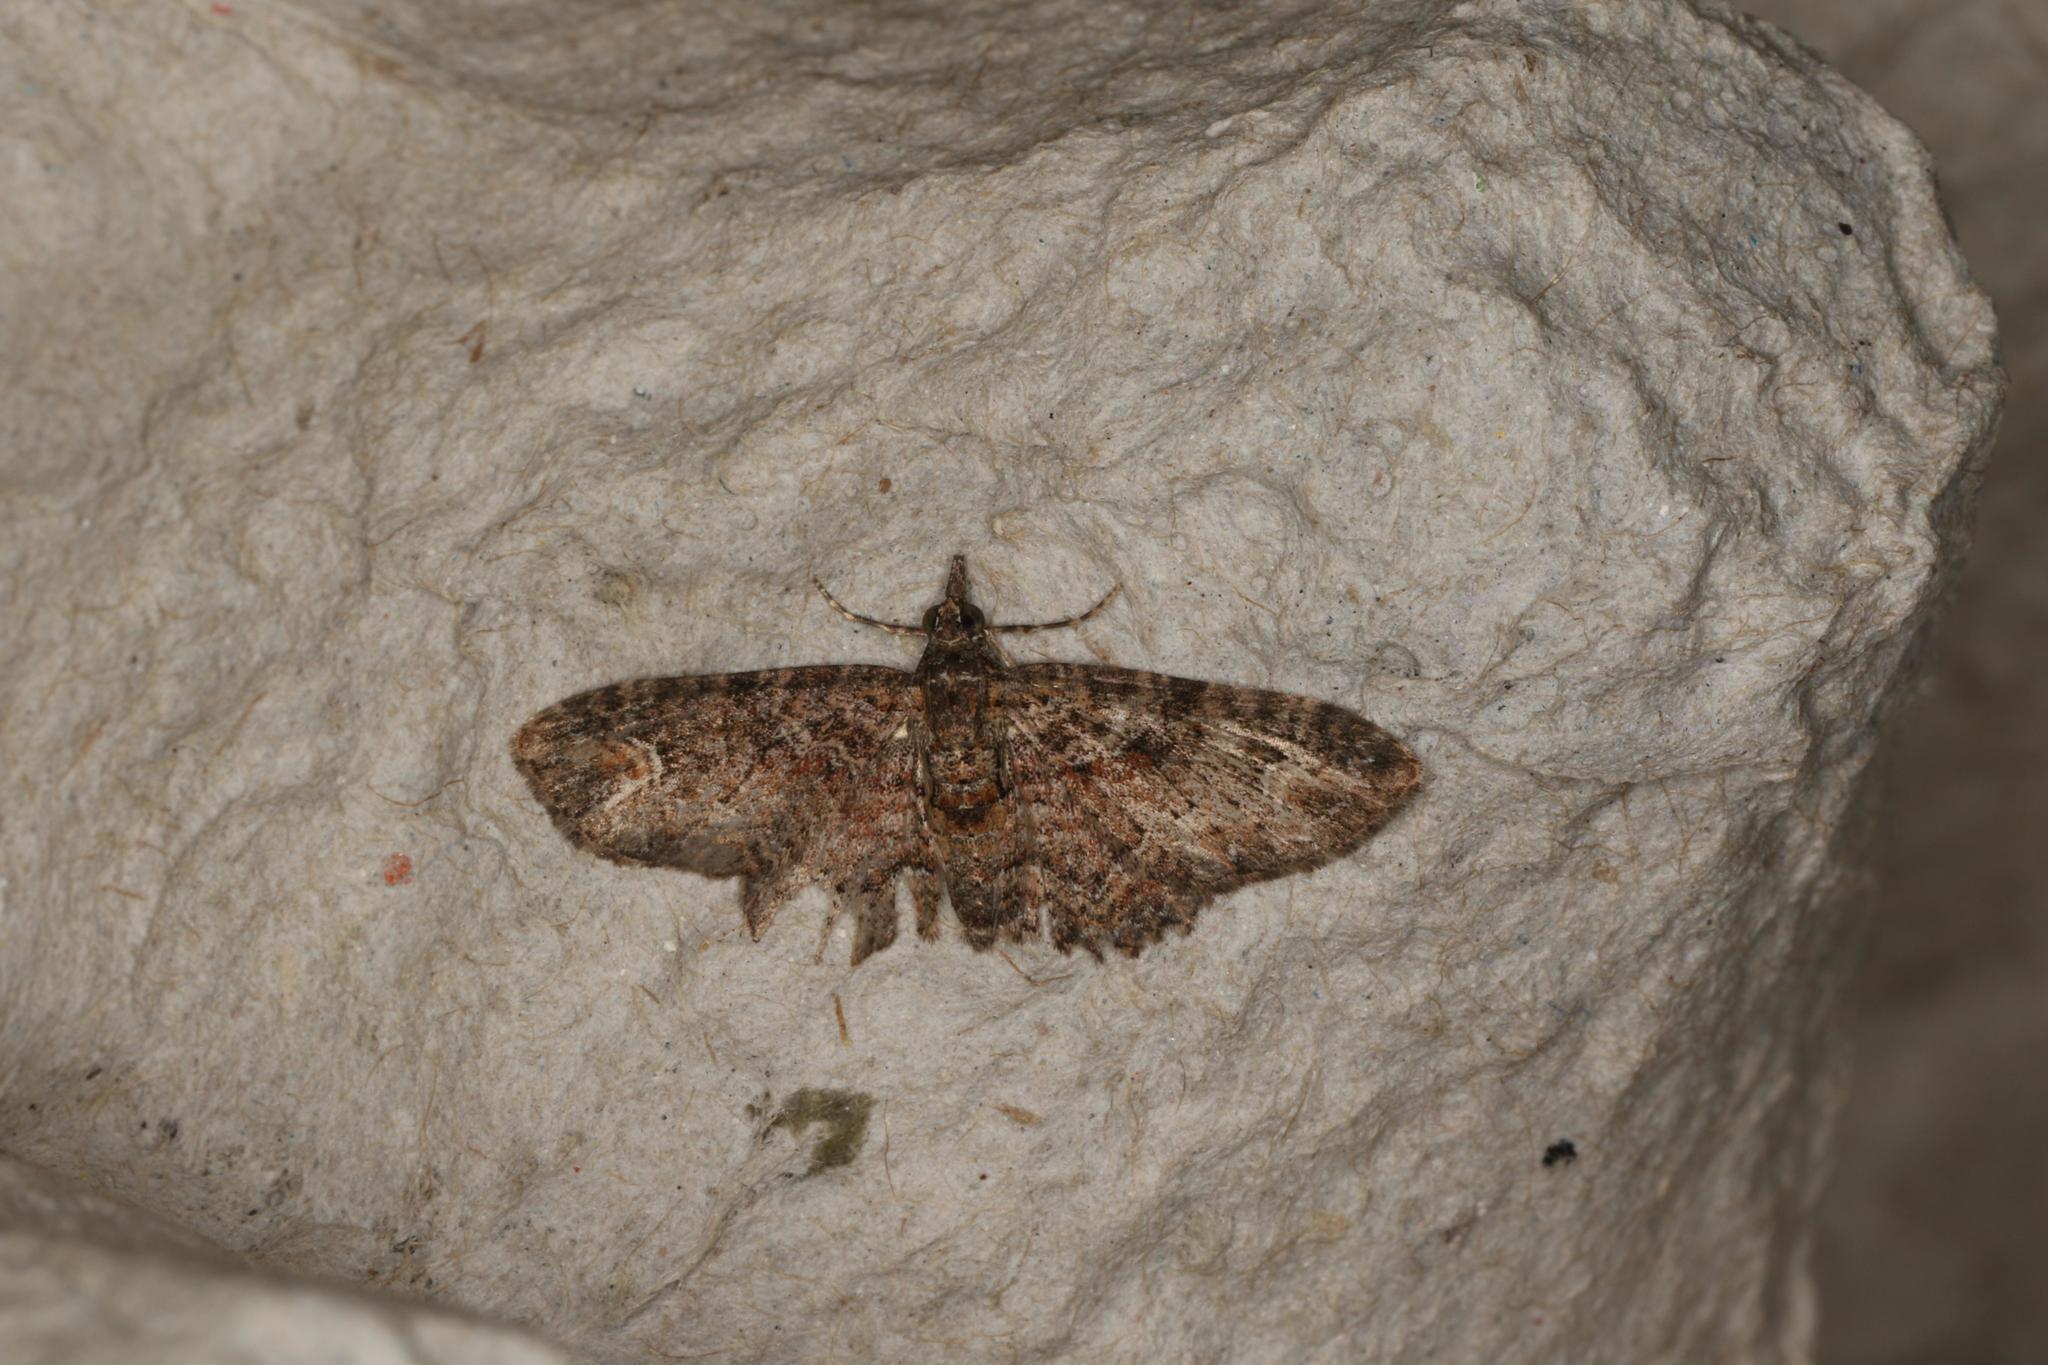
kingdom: Animalia
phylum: Arthropoda
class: Insecta
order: Lepidoptera
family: Geometridae
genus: Pasiphilodes
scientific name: Pasiphilodes testulata
